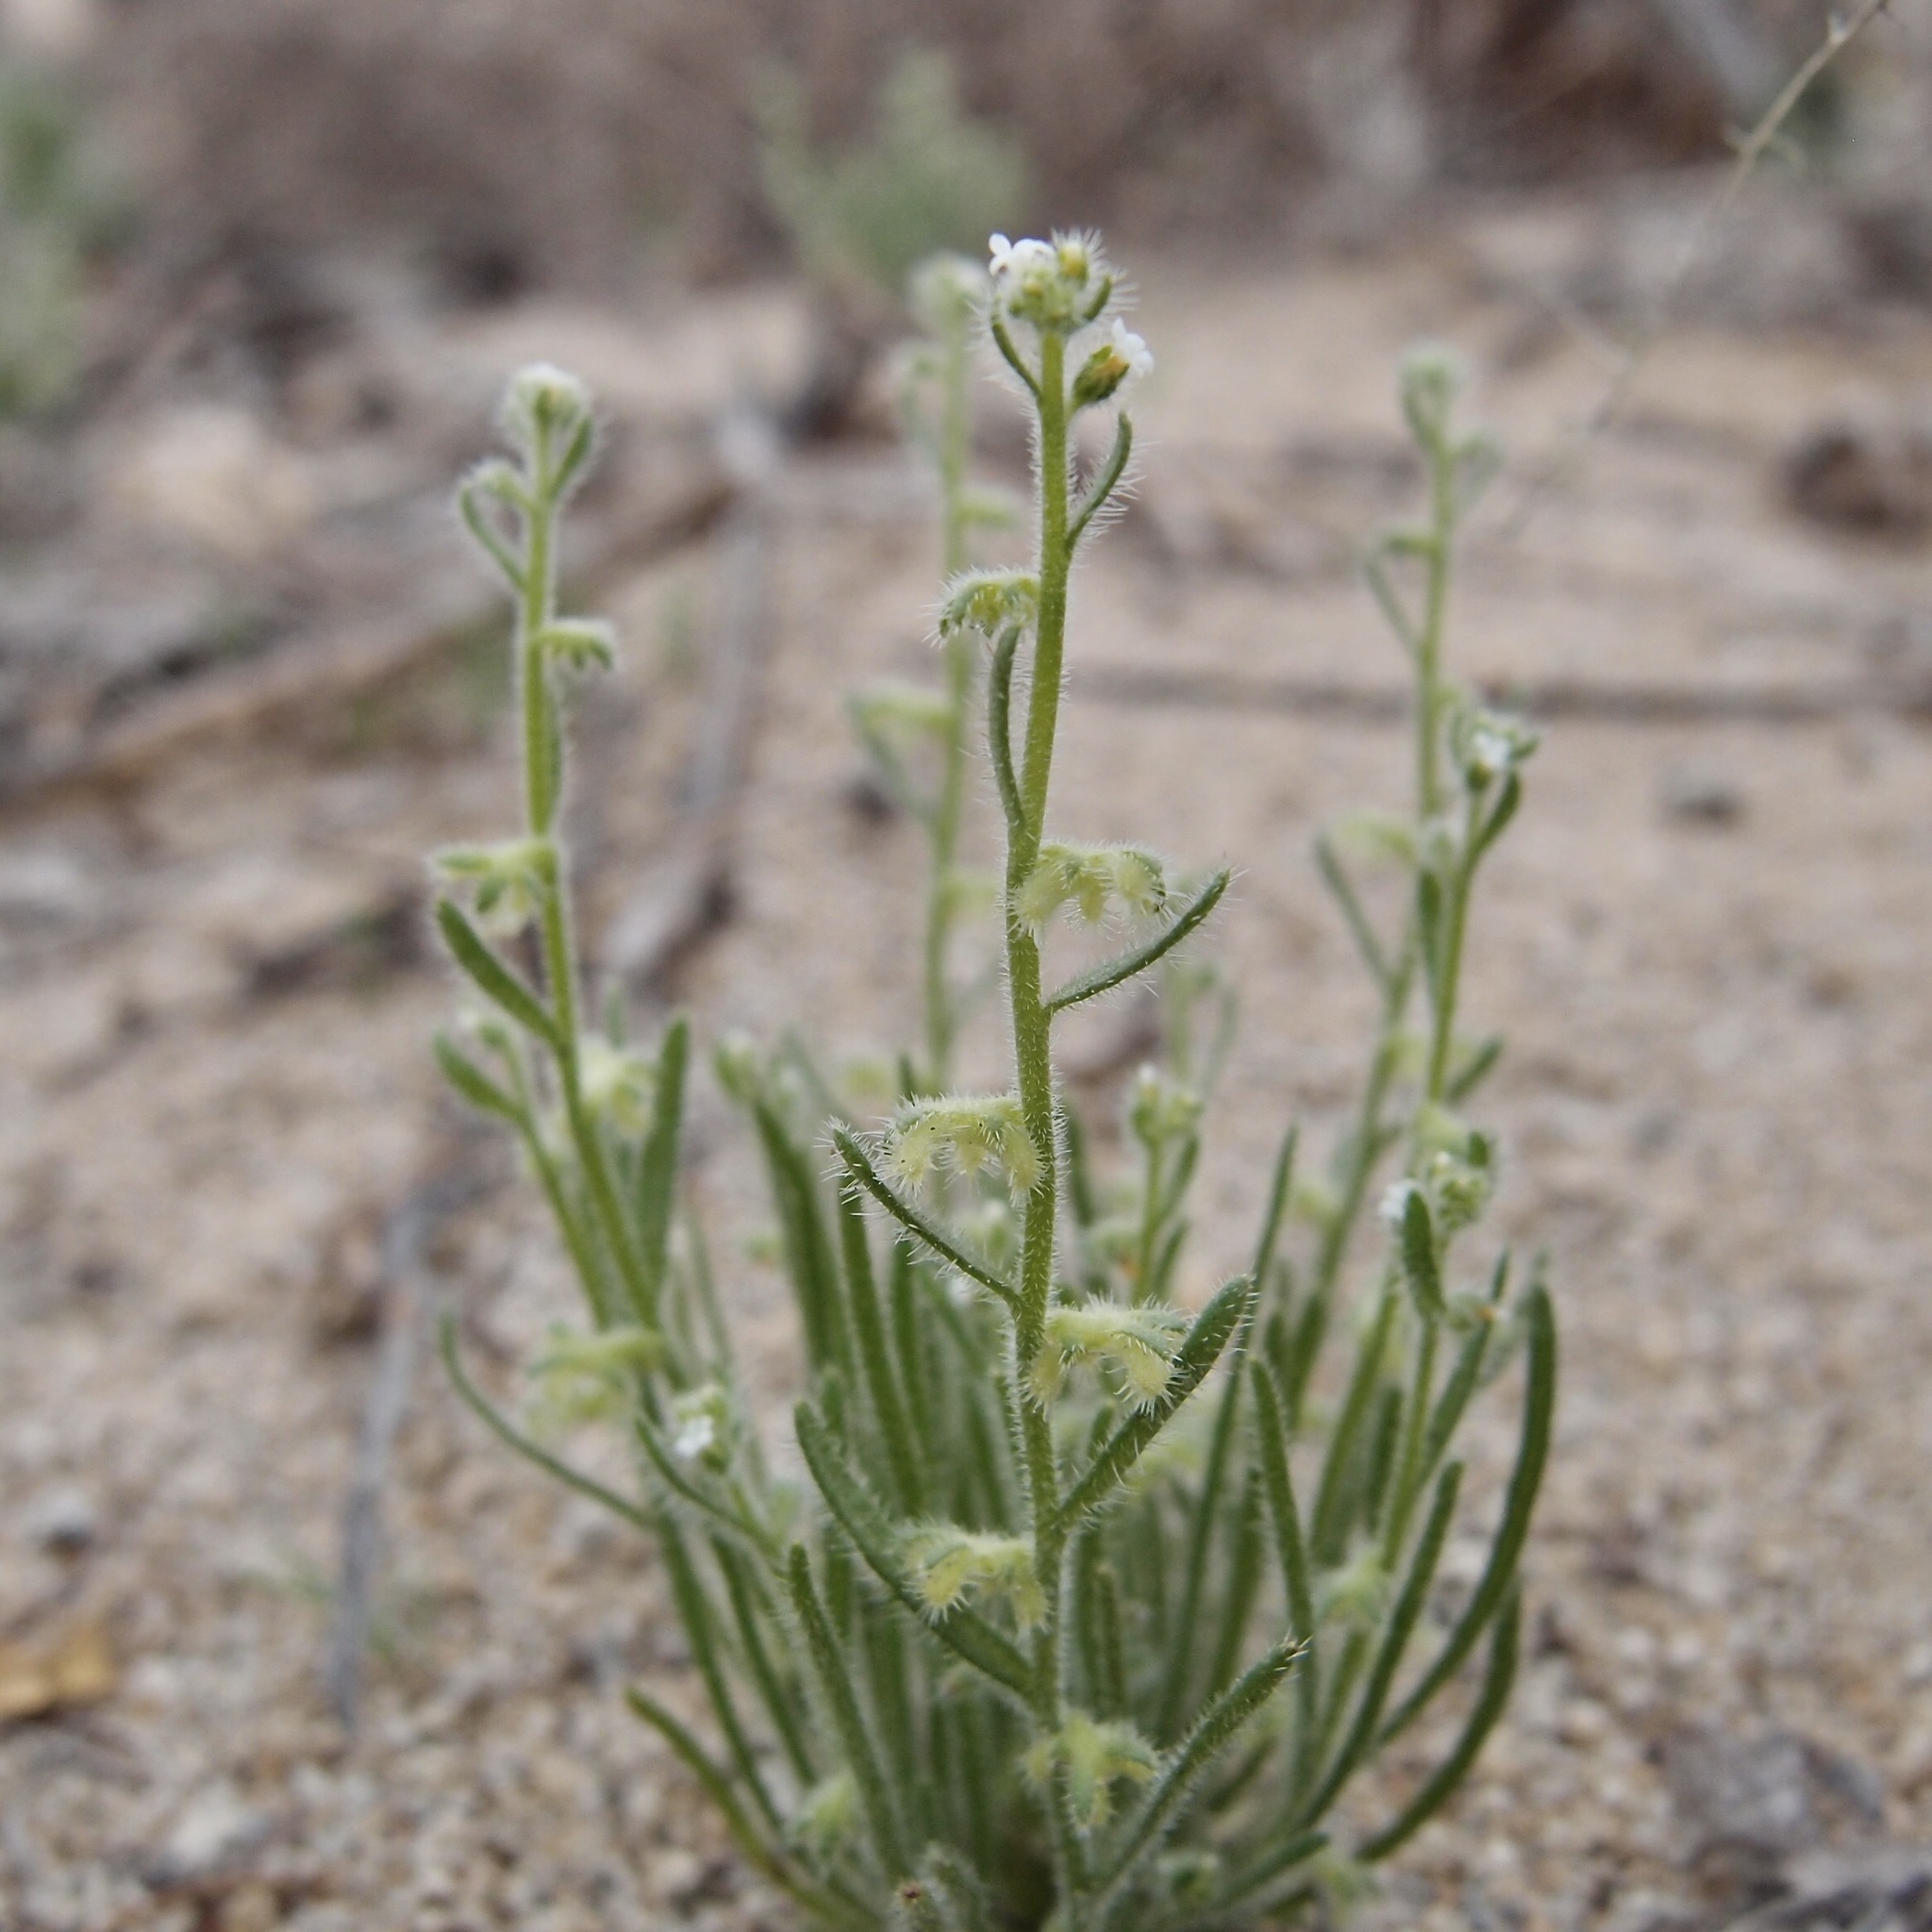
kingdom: Plantae
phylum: Tracheophyta
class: Magnoliopsida
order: Boraginales
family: Boraginaceae
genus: Pectocarya
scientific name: Pectocarya heterocarpa
